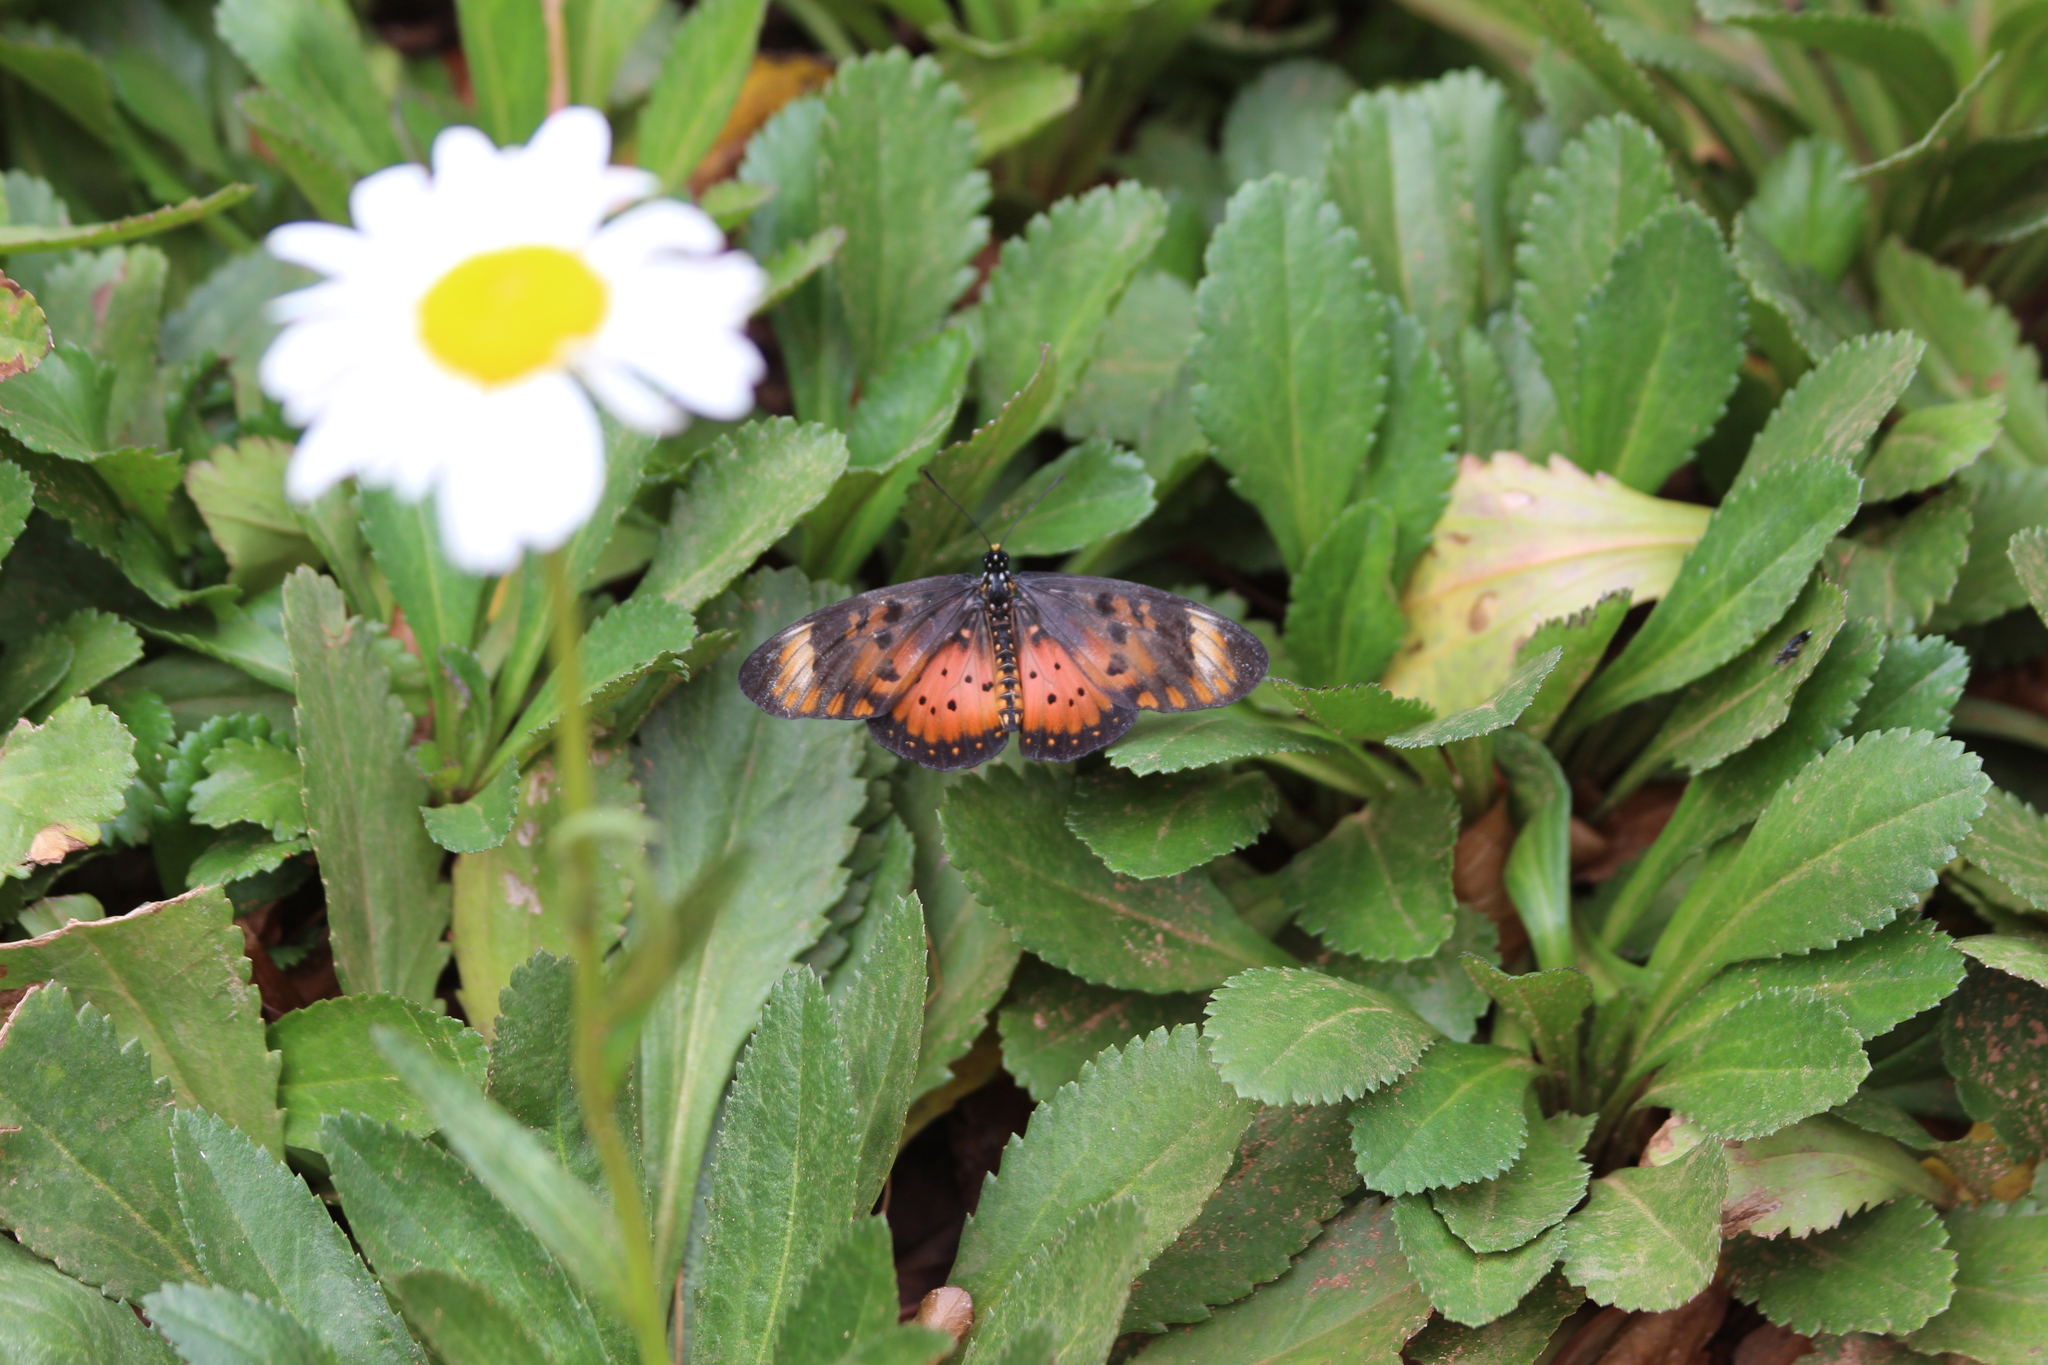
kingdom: Animalia
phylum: Arthropoda
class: Insecta
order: Lepidoptera
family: Nymphalidae
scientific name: Nymphalidae
